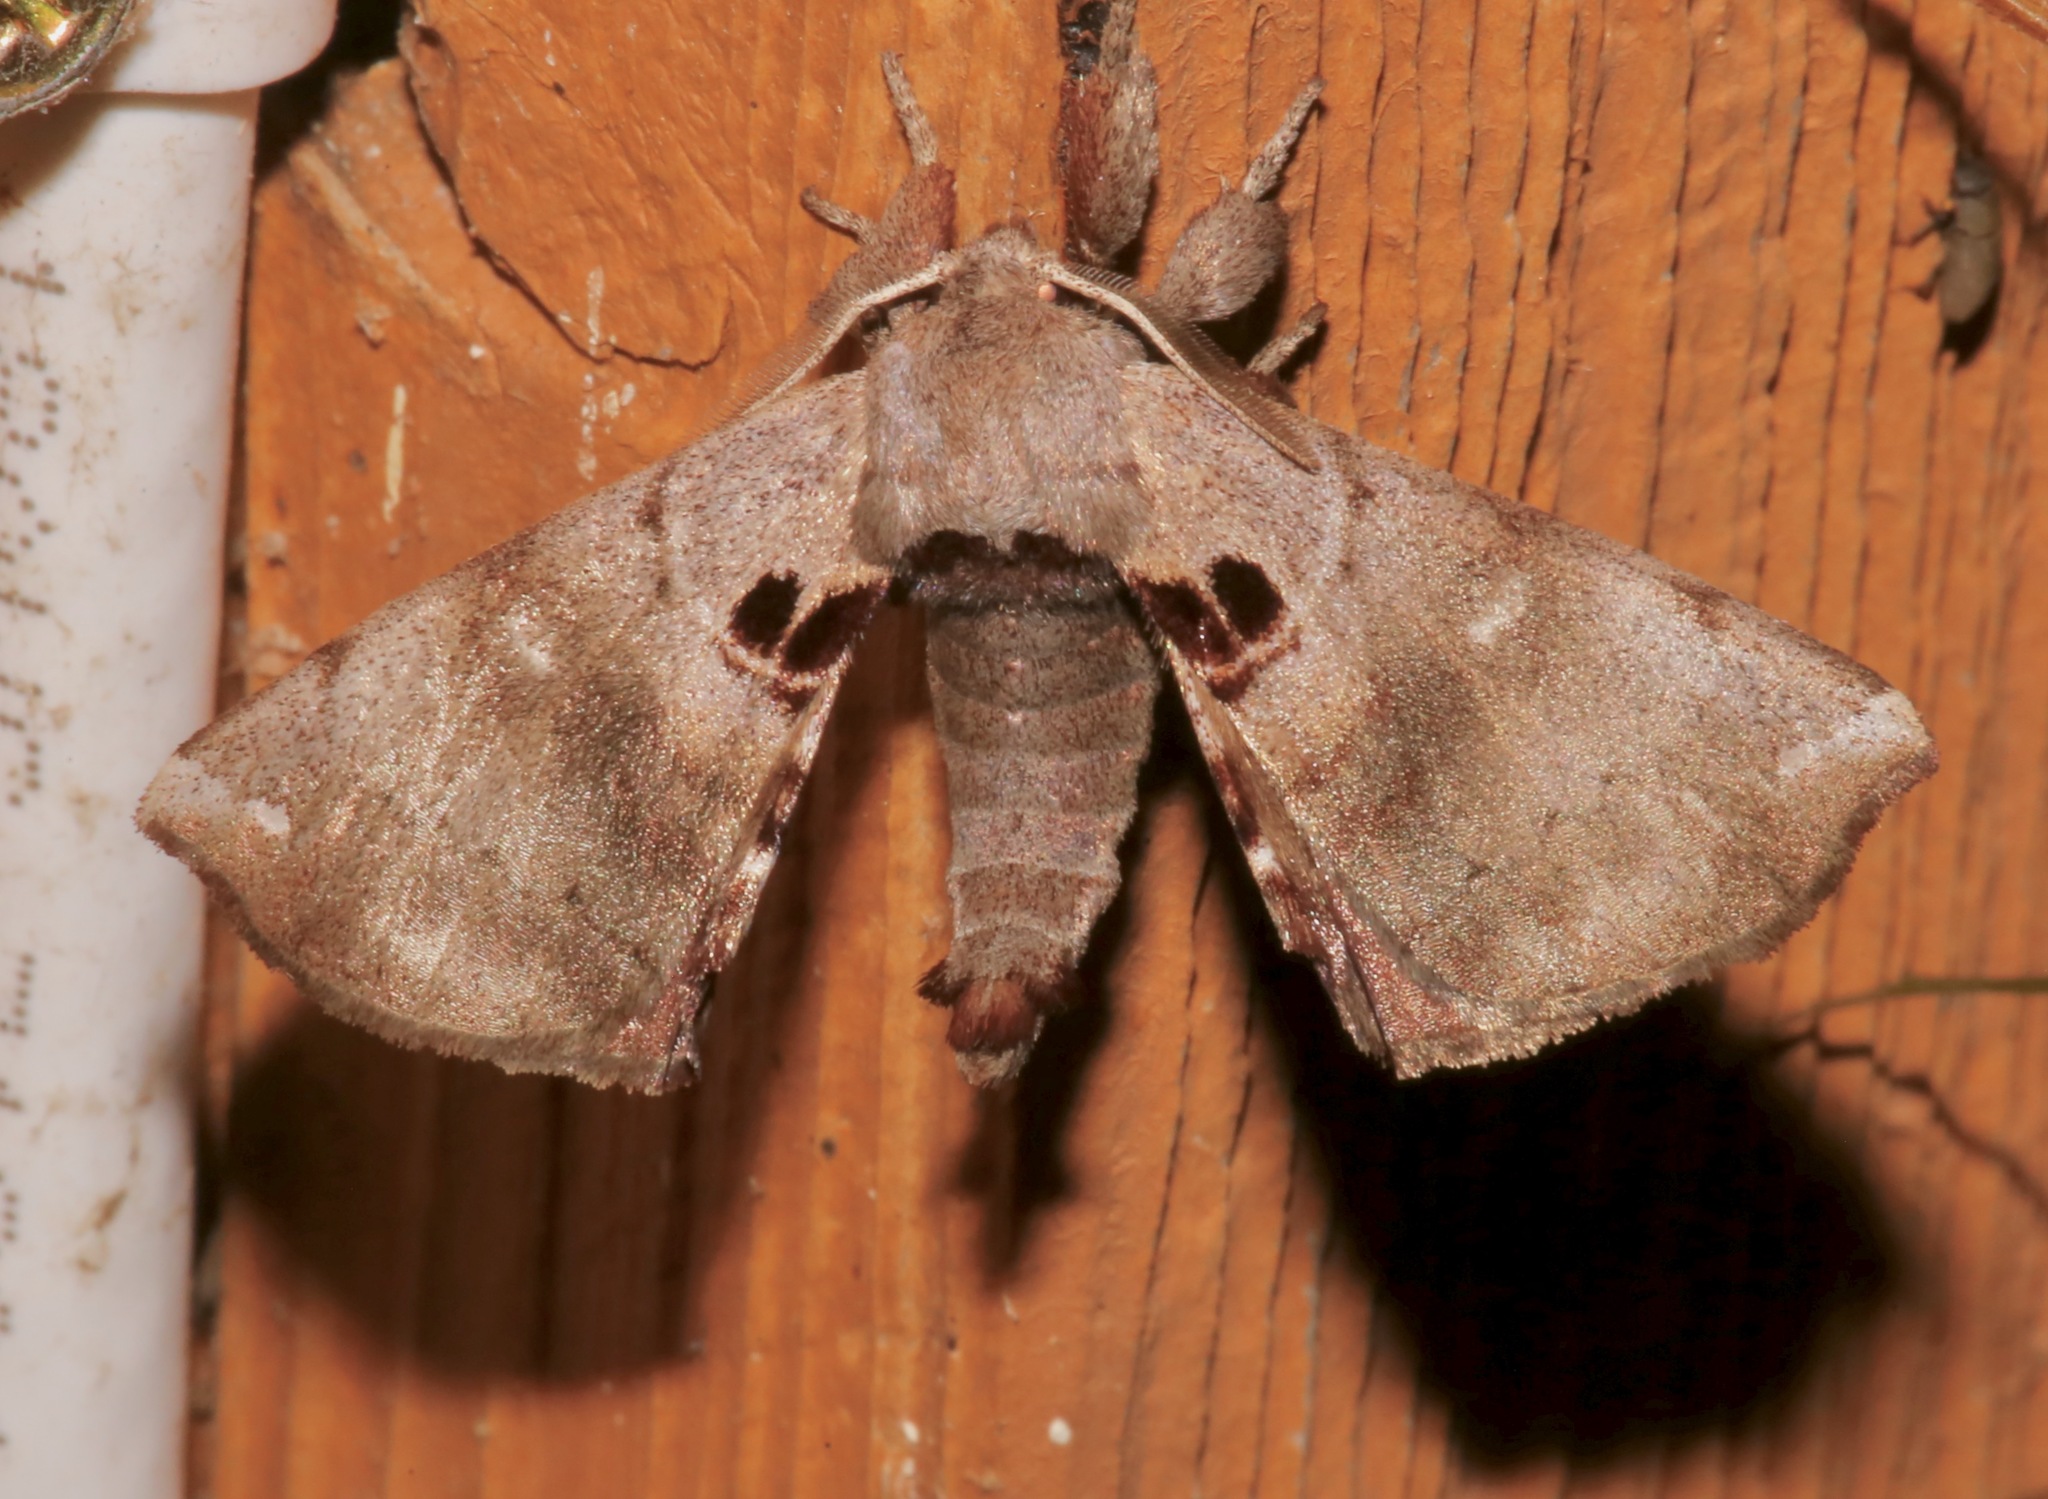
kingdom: Animalia
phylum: Arthropoda
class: Insecta
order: Lepidoptera
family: Apatelodidae
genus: Hygrochroa
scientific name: Hygrochroa Apatelodes torrefacta
